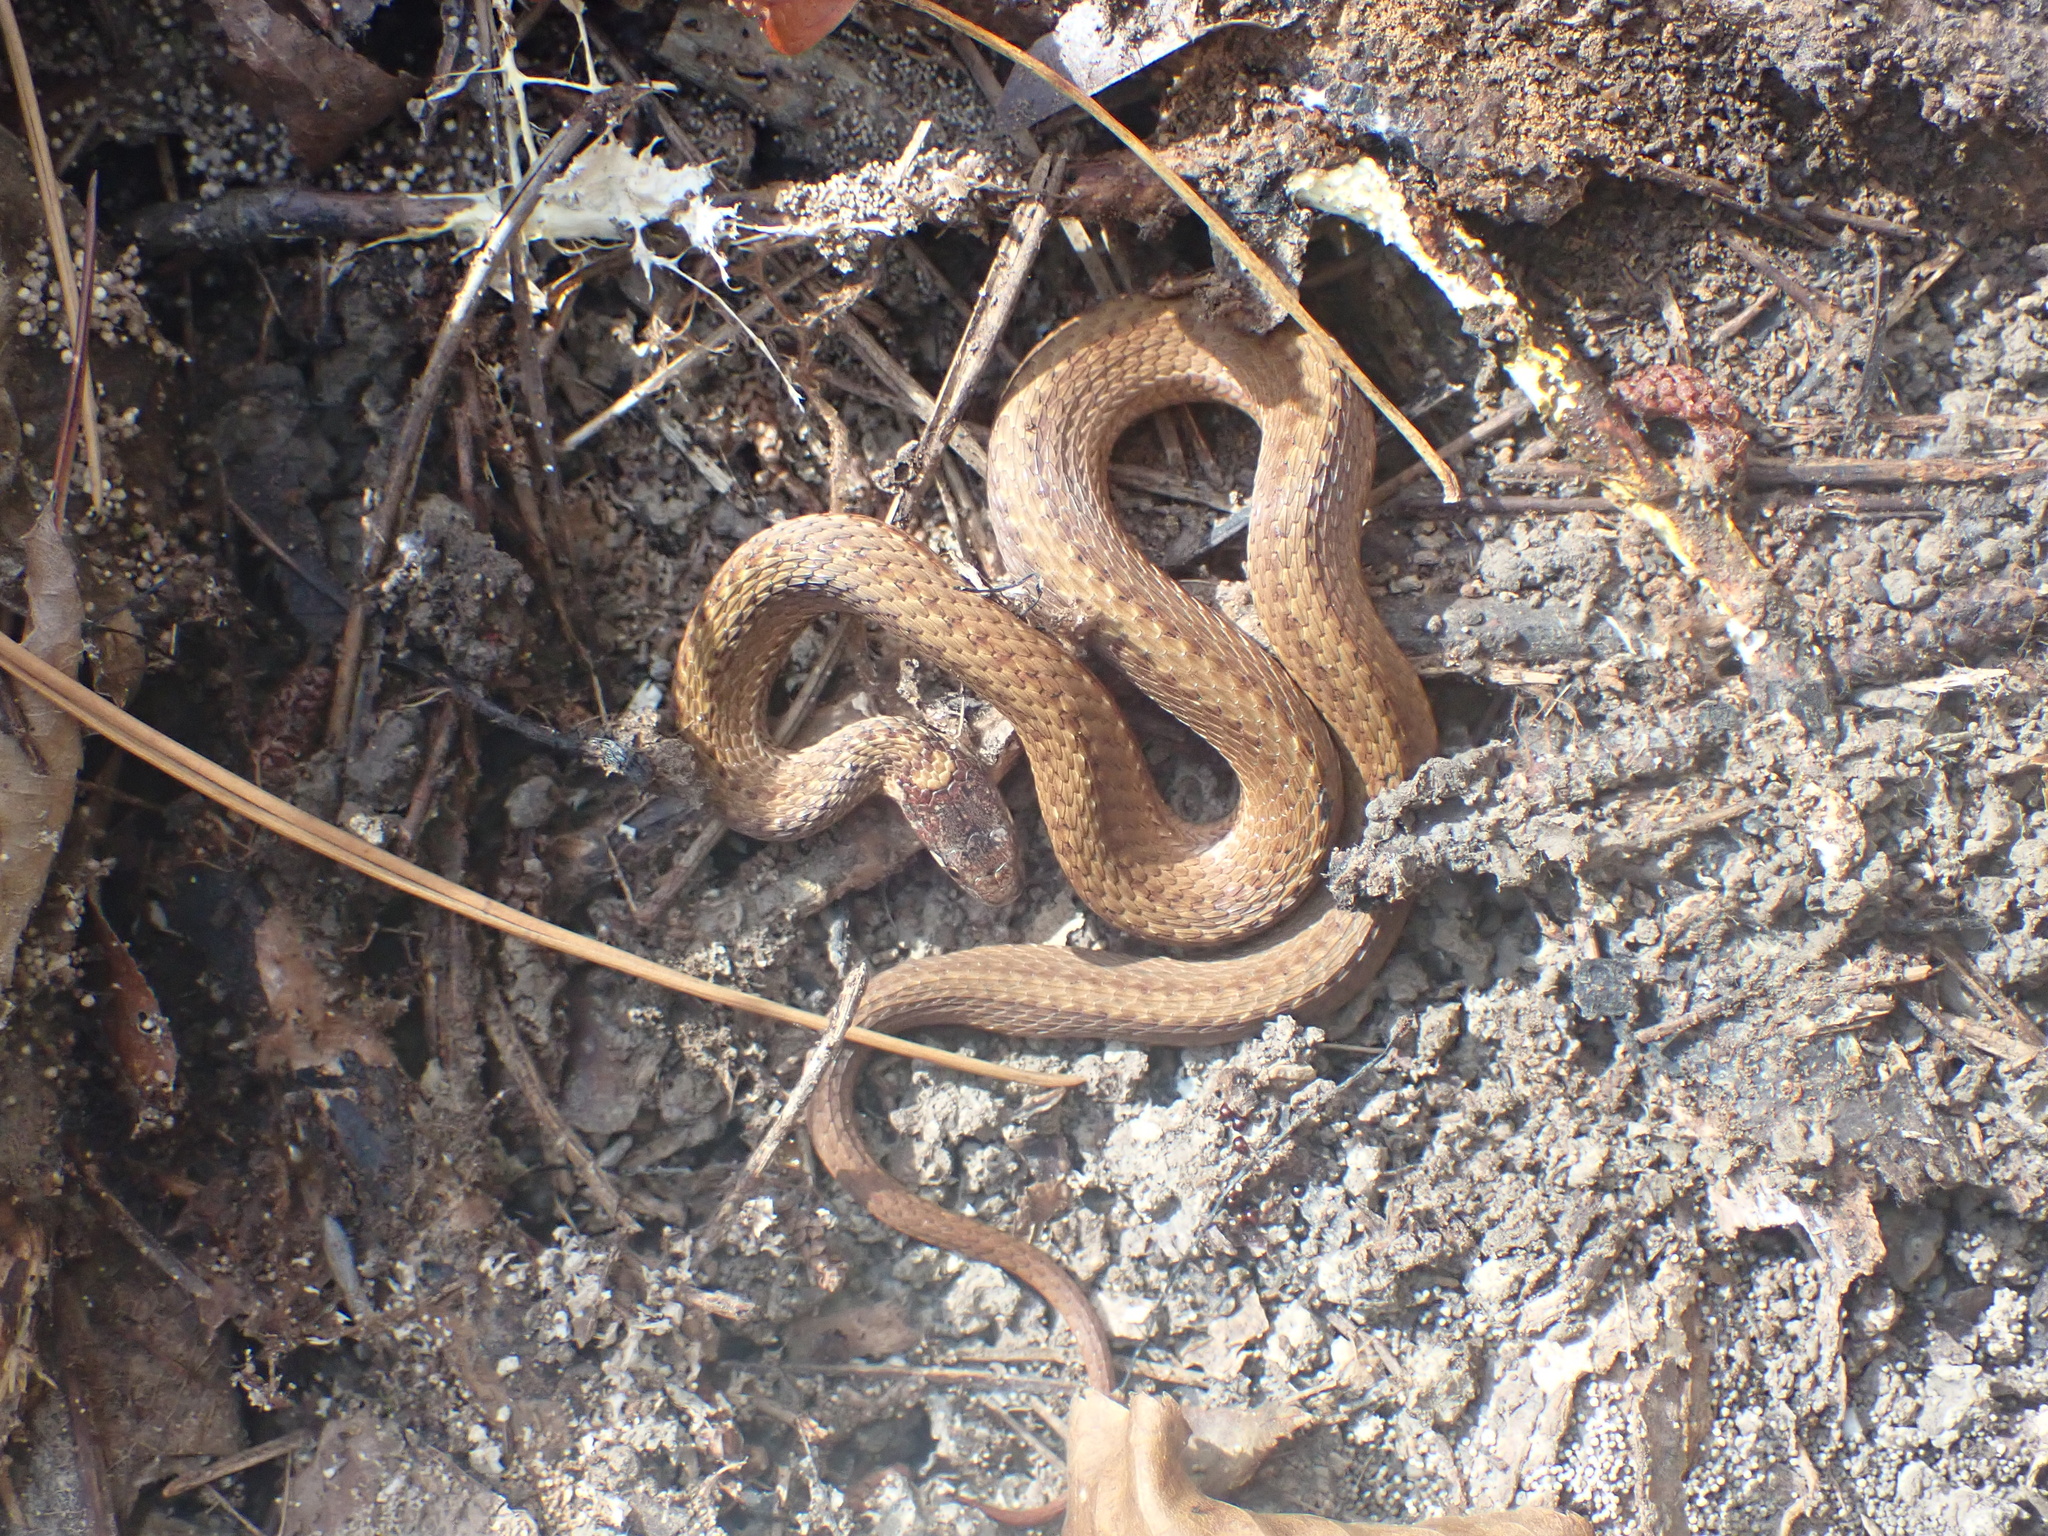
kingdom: Animalia
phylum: Chordata
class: Squamata
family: Colubridae
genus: Storeria
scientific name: Storeria occipitomaculata
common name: Redbelly snake
